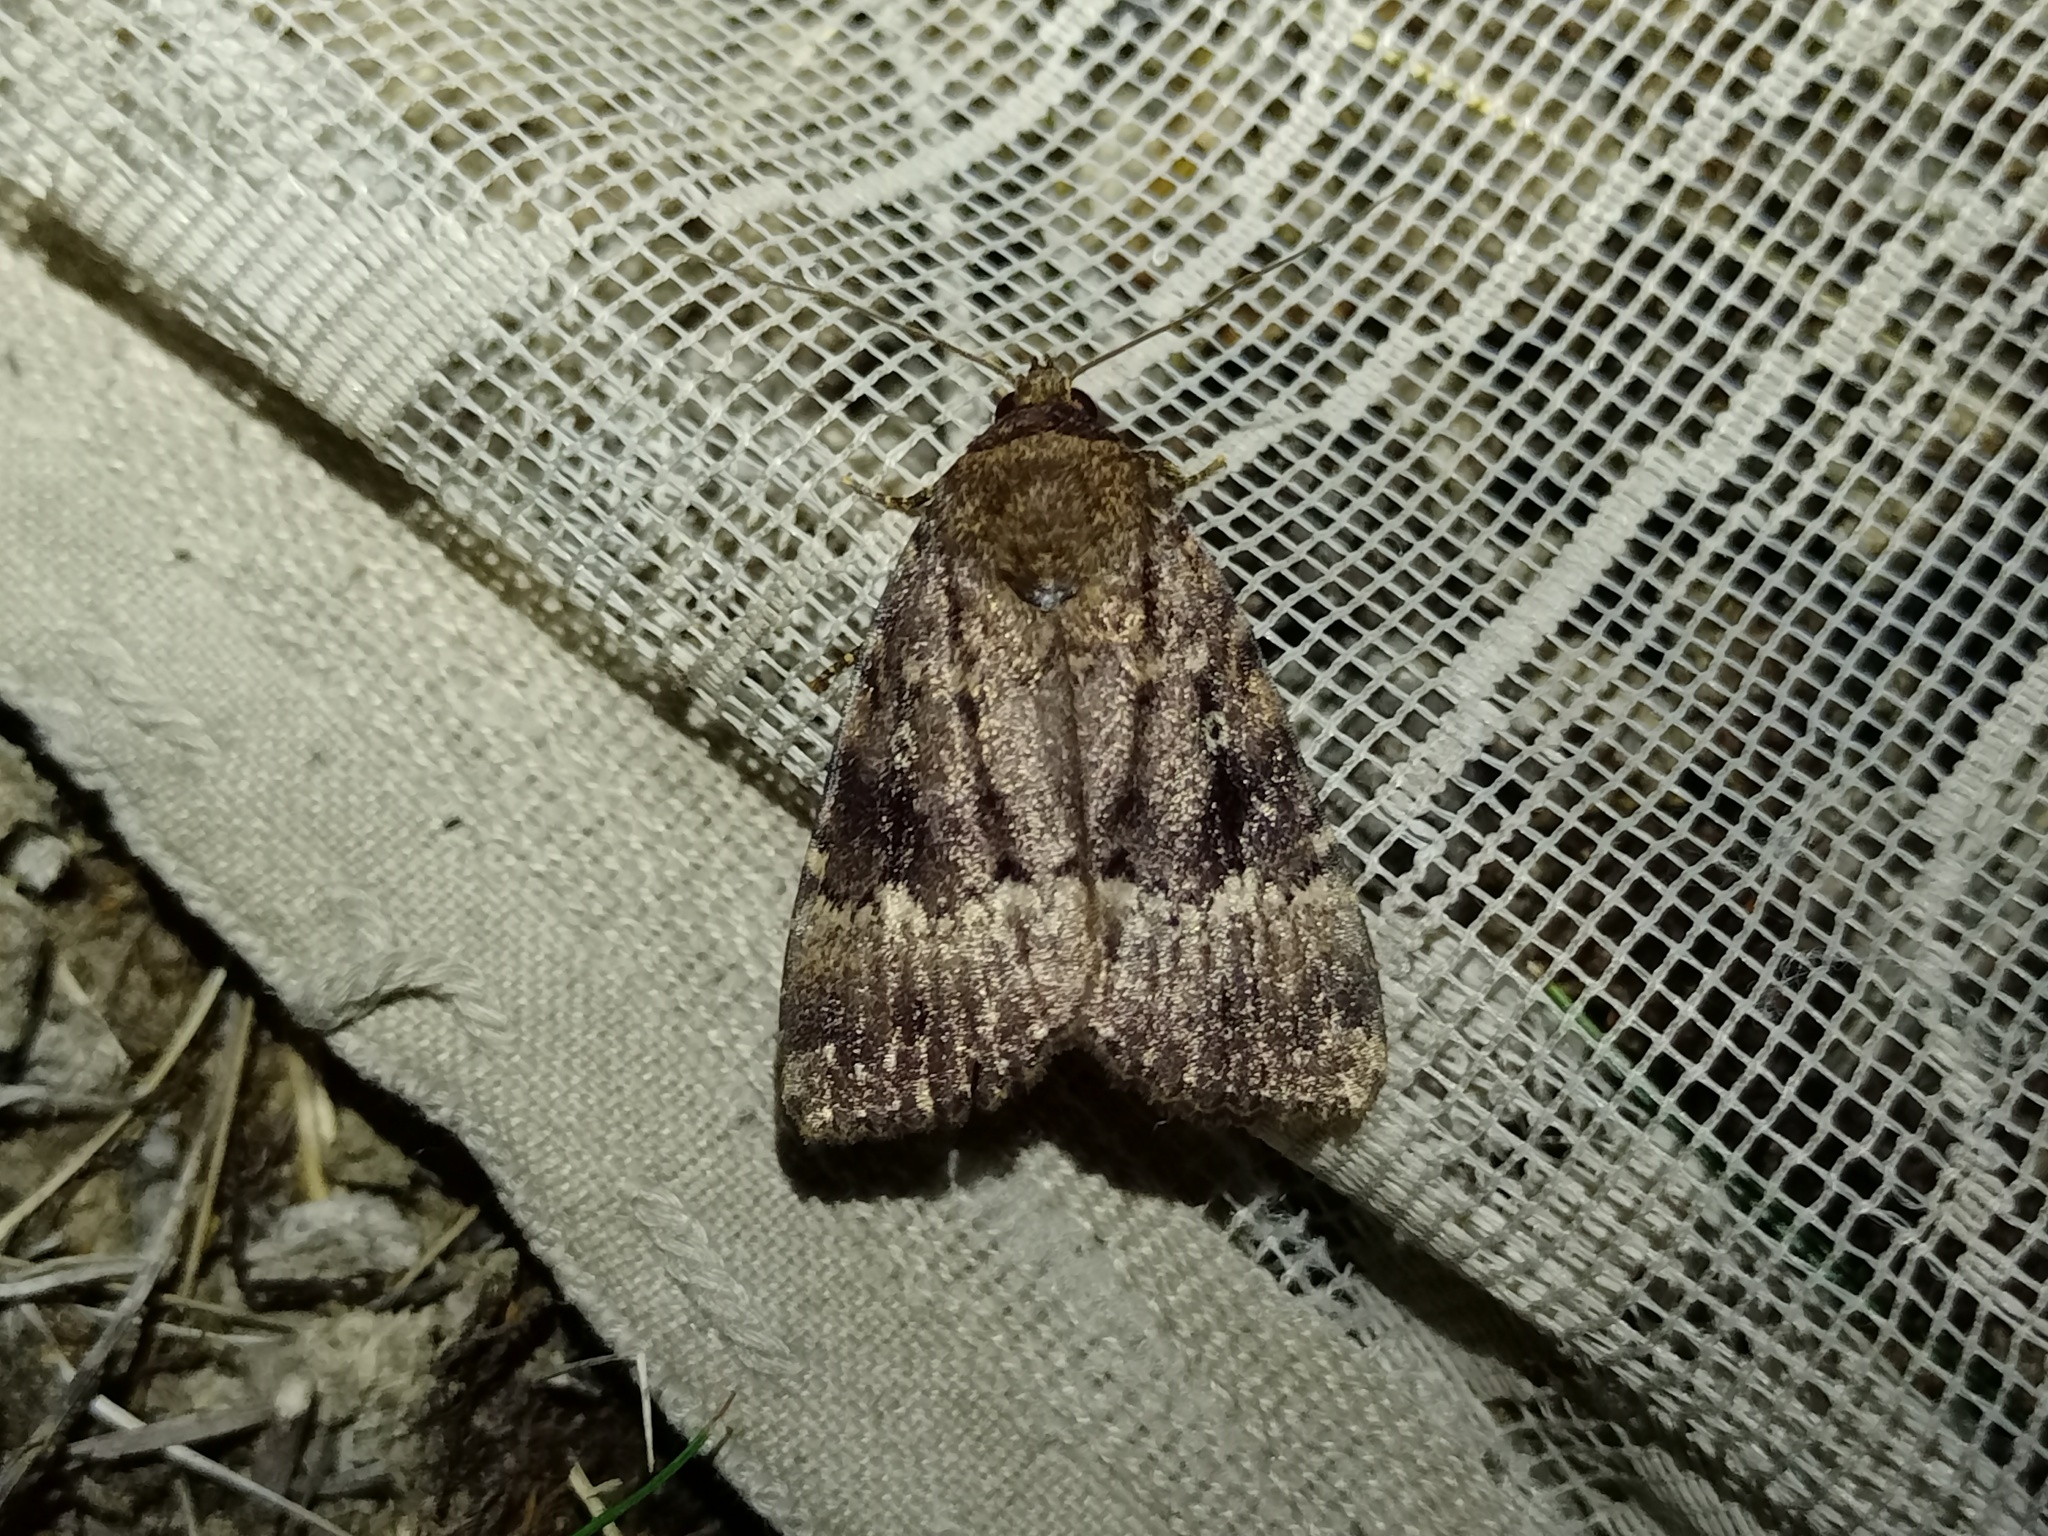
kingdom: Animalia
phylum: Arthropoda
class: Insecta
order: Lepidoptera
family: Noctuidae
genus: Amphipyra
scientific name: Amphipyra pyramidea
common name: Copper underwing
